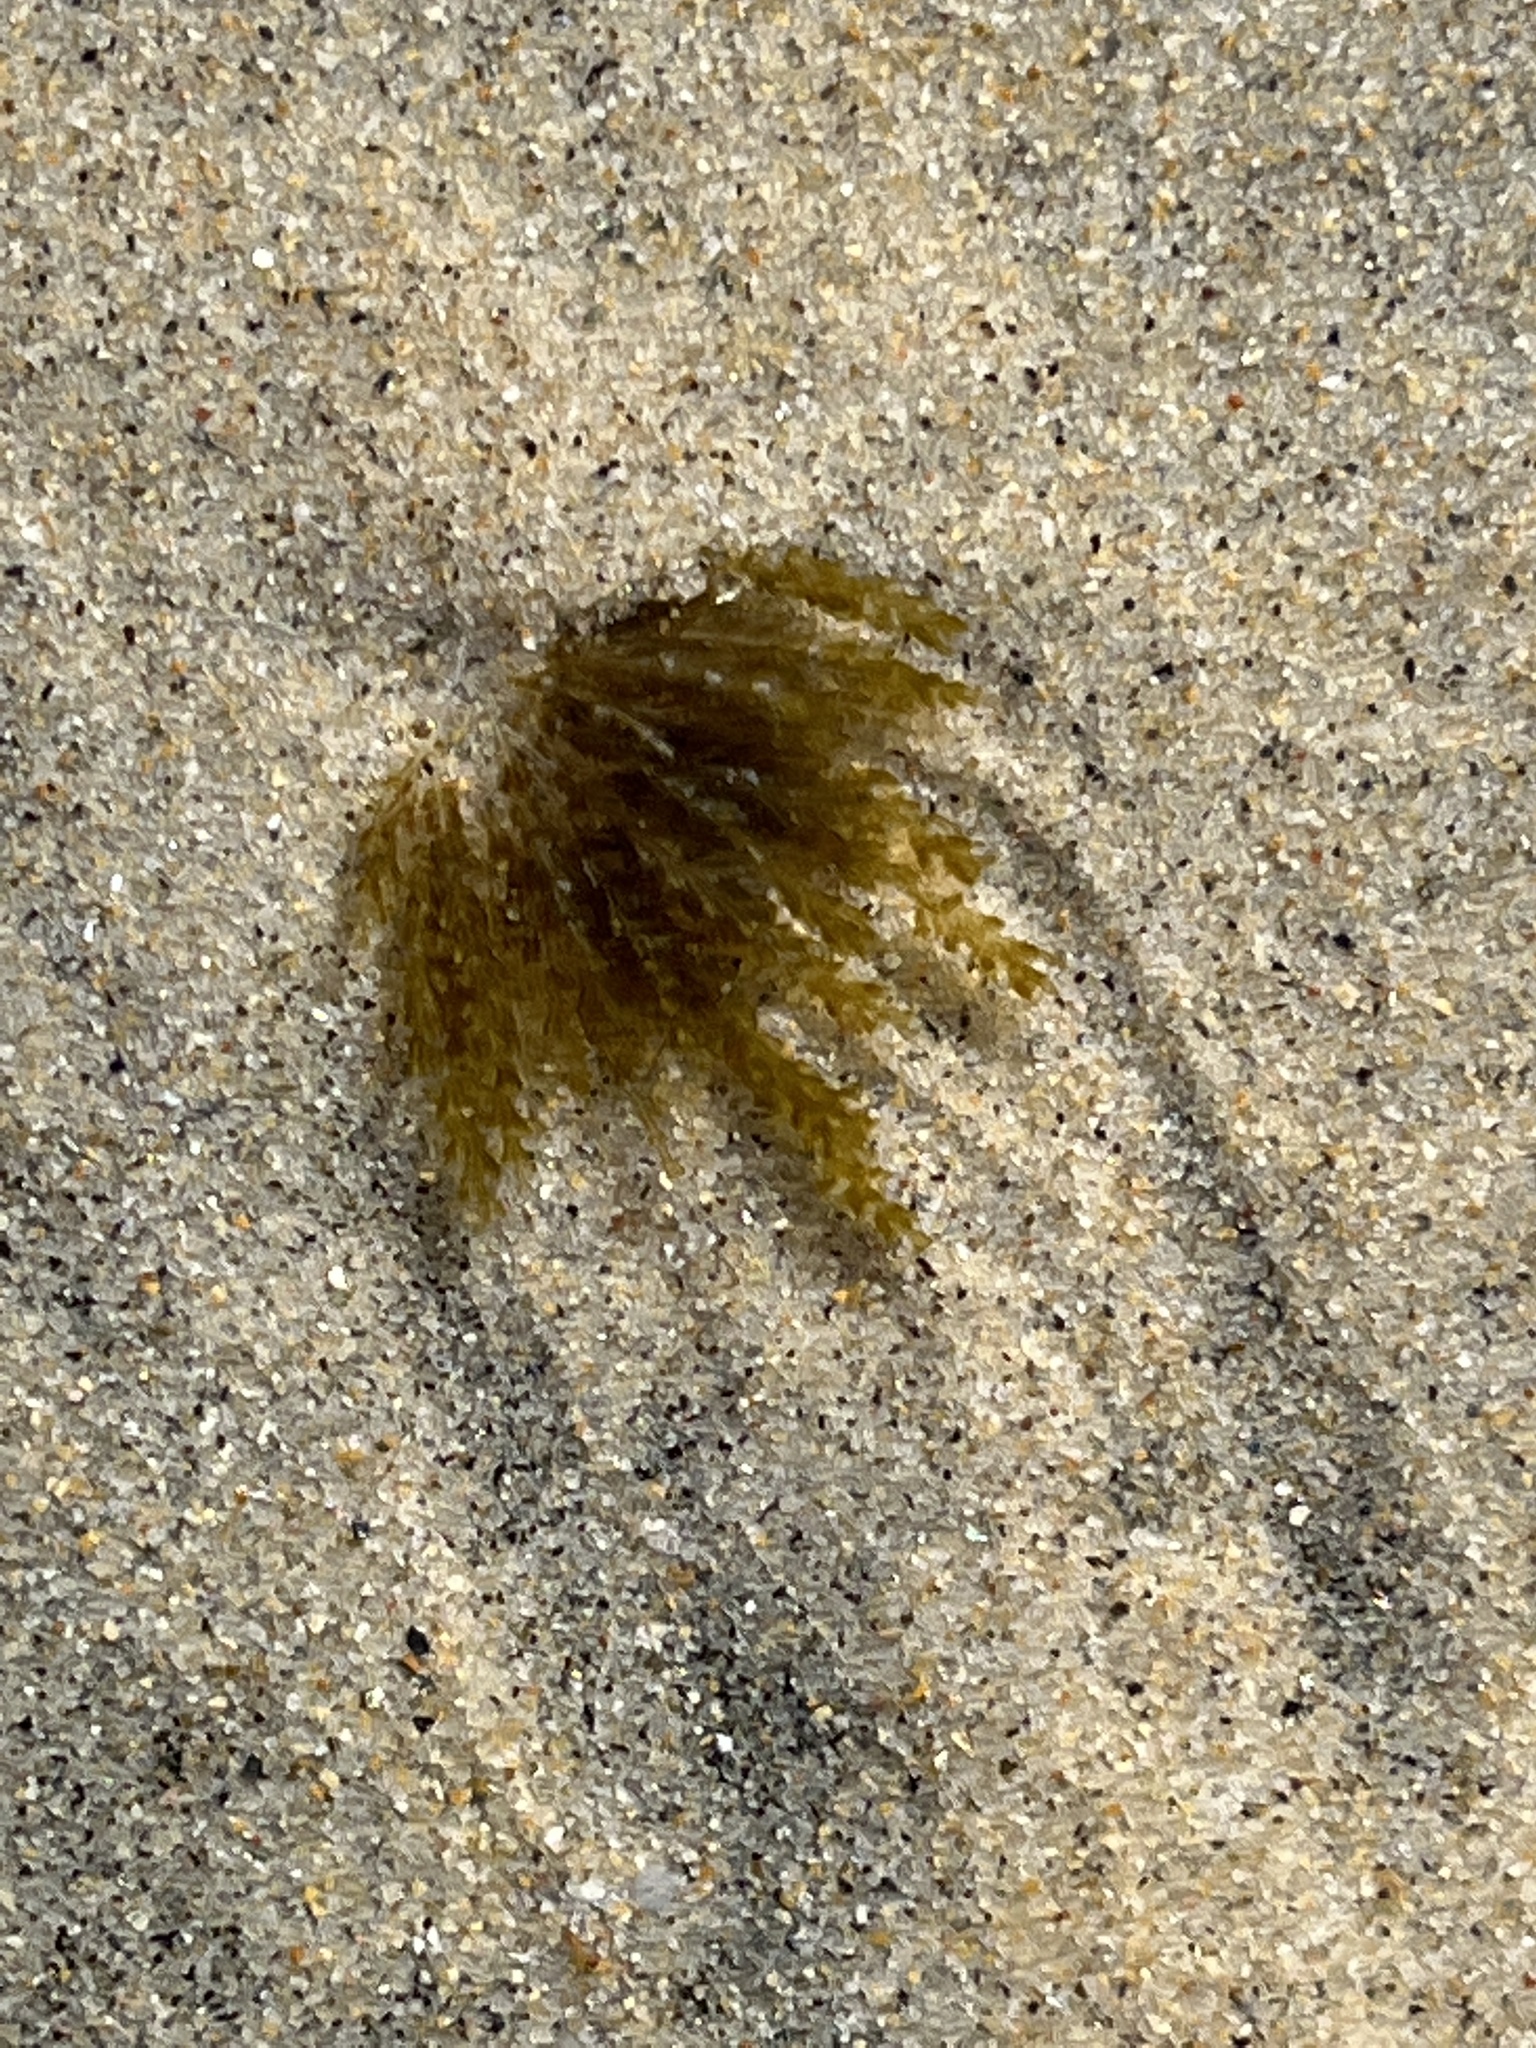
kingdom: Animalia
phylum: Cnidaria
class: Hydrozoa
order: Leptothecata
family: Lovenellidae
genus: Eucheilota
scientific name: Eucheilota bakeri
